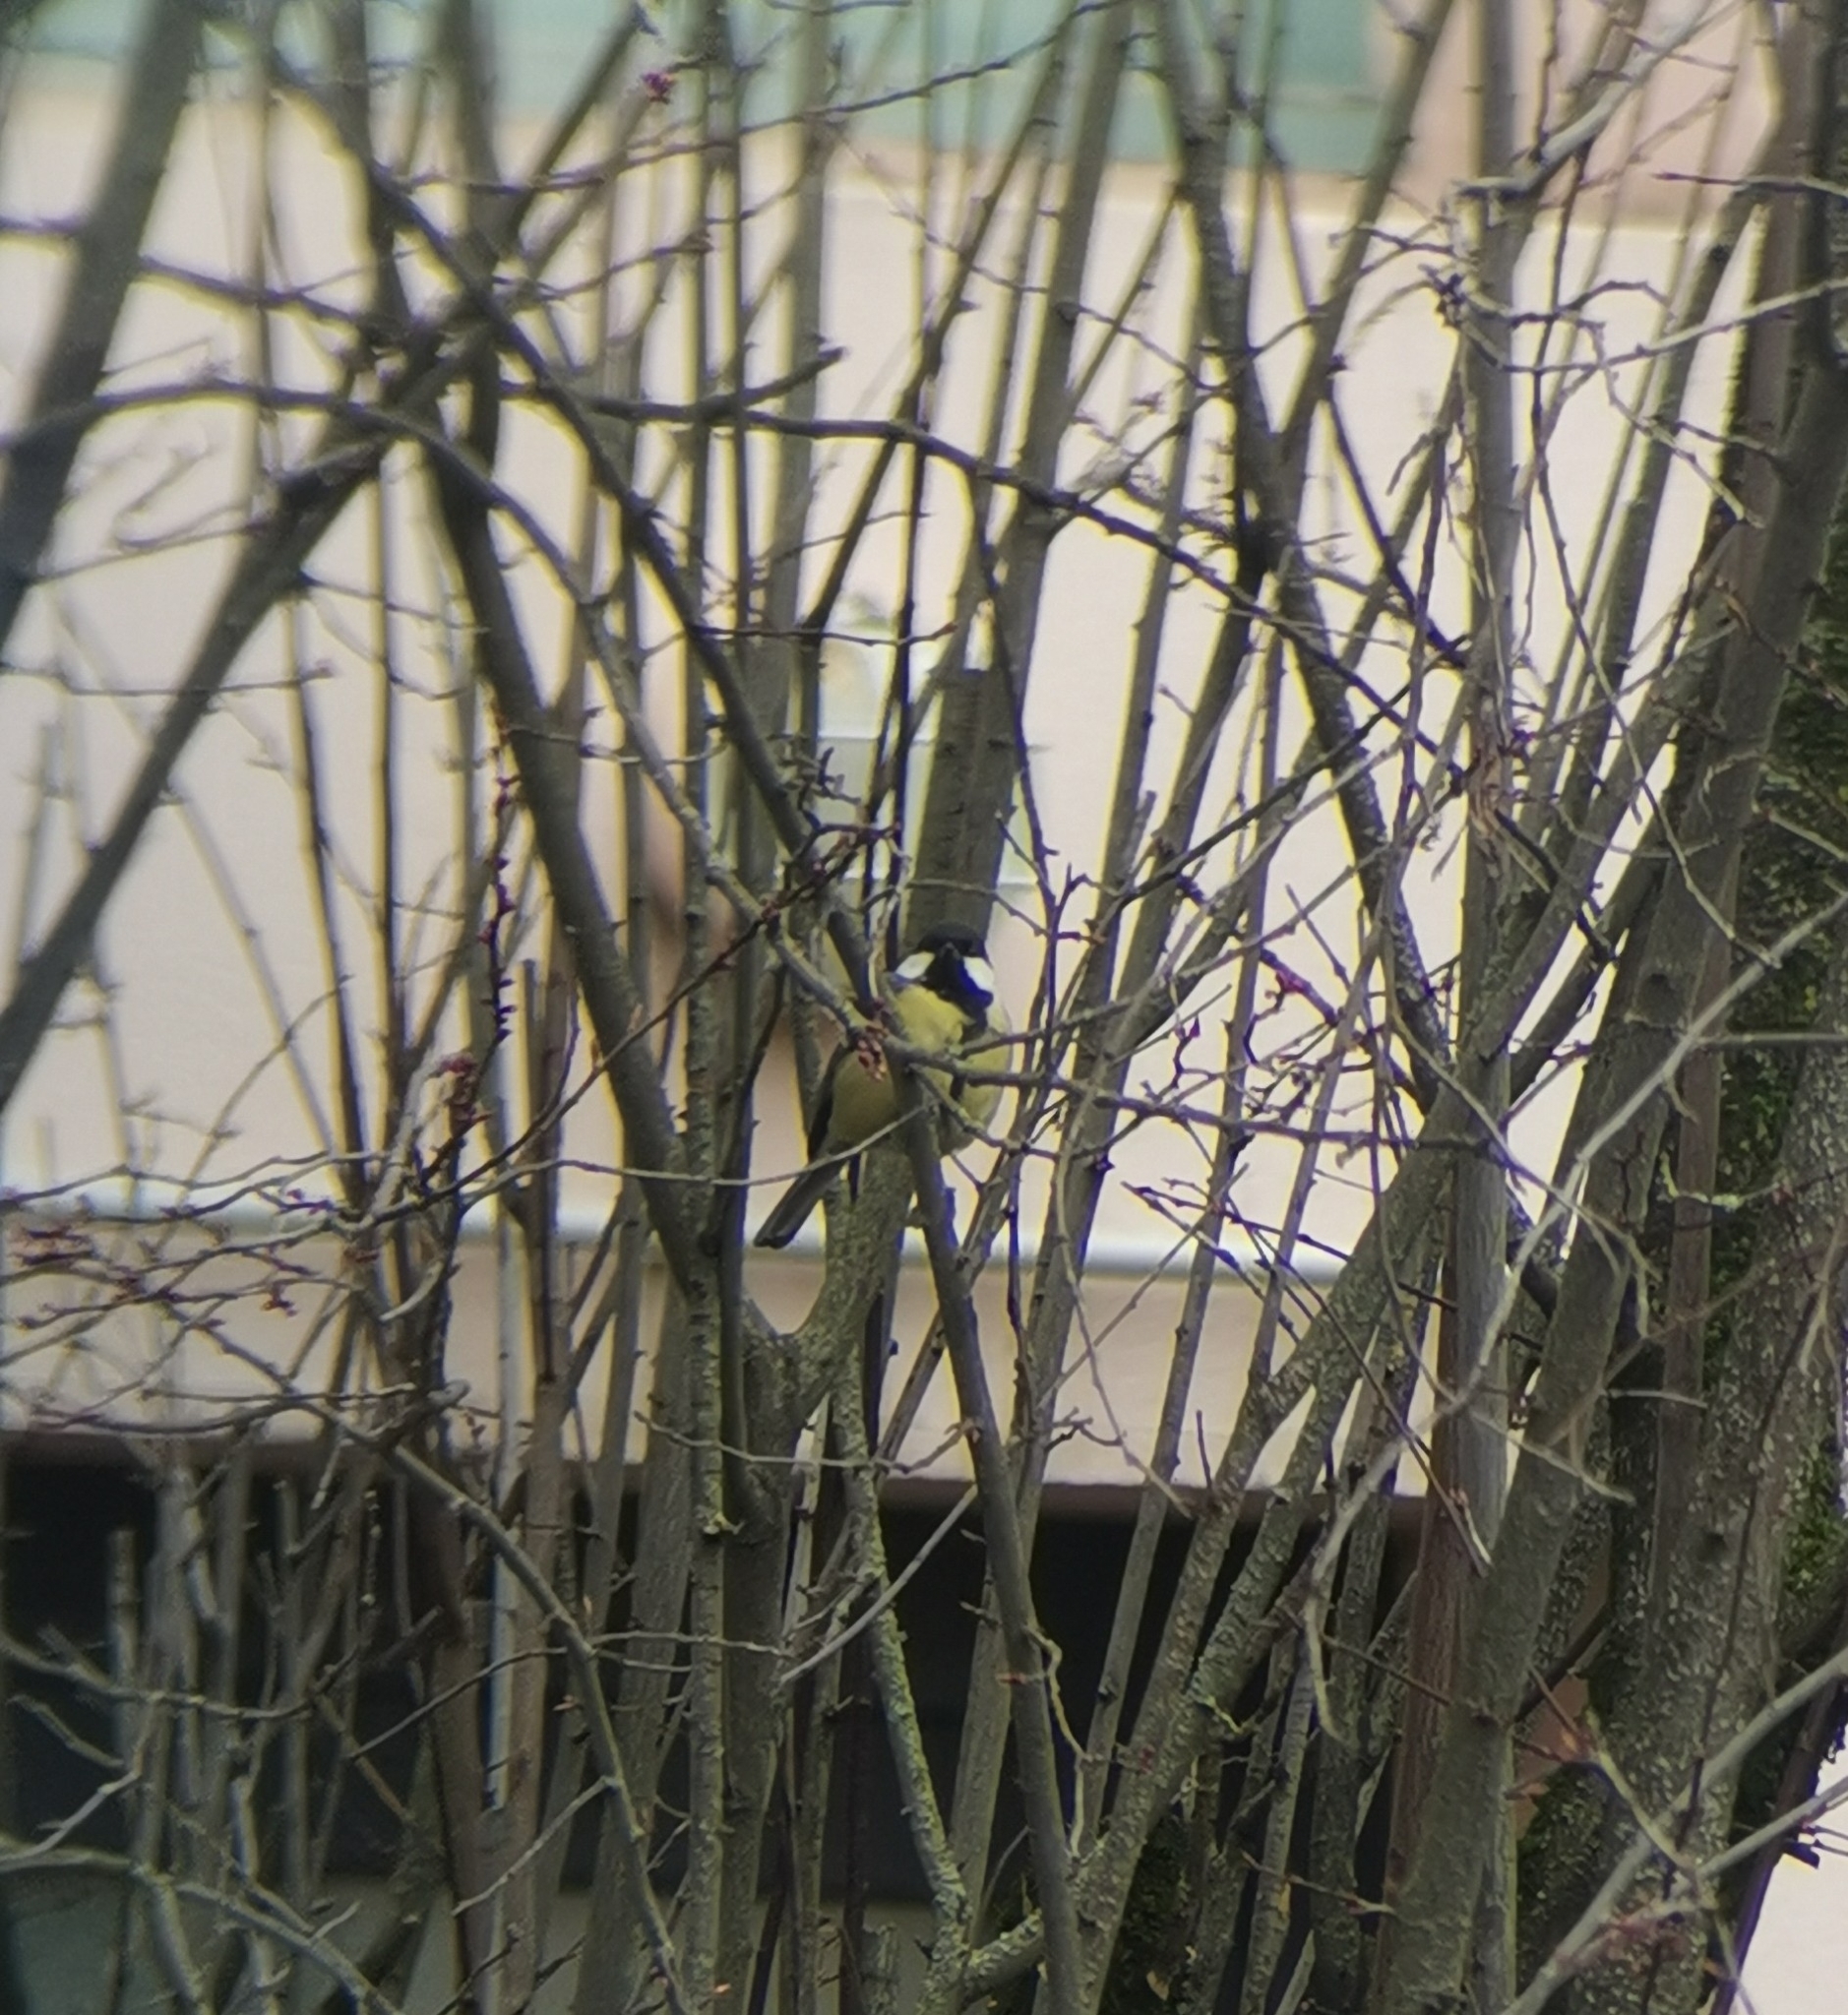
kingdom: Animalia
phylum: Chordata
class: Aves
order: Passeriformes
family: Paridae
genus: Parus
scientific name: Parus major
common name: Great tit
